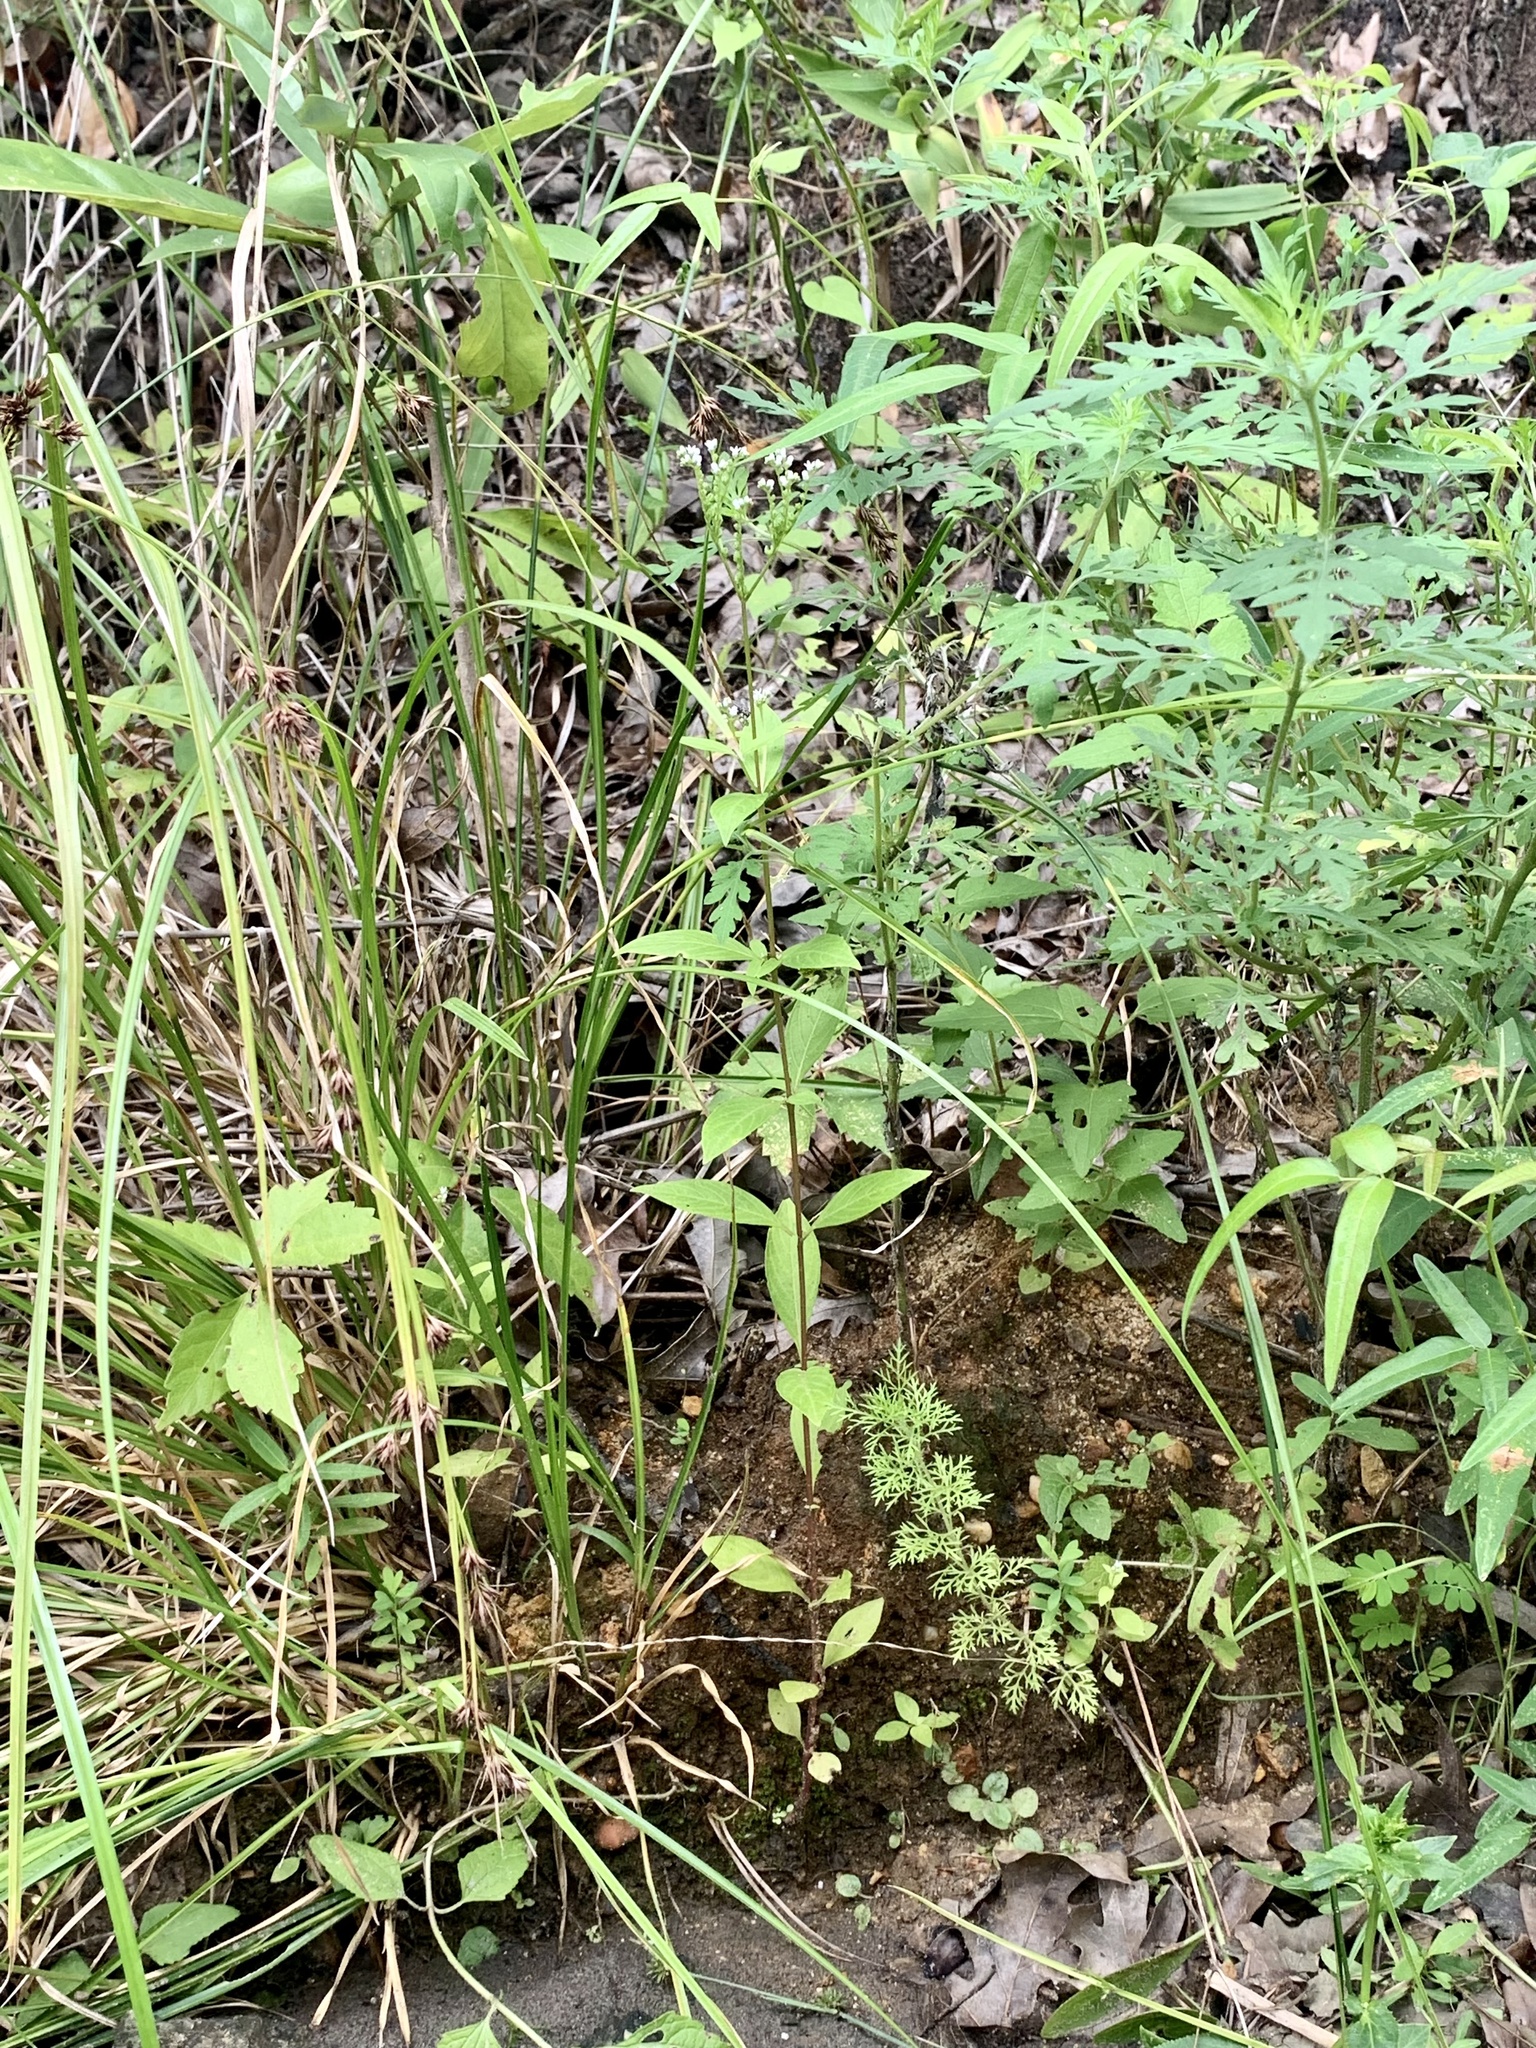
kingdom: Plantae
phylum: Tracheophyta
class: Magnoliopsida
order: Gentianales
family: Loganiaceae
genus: Mitreola
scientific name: Mitreola petiolata
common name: Lax hornpod
